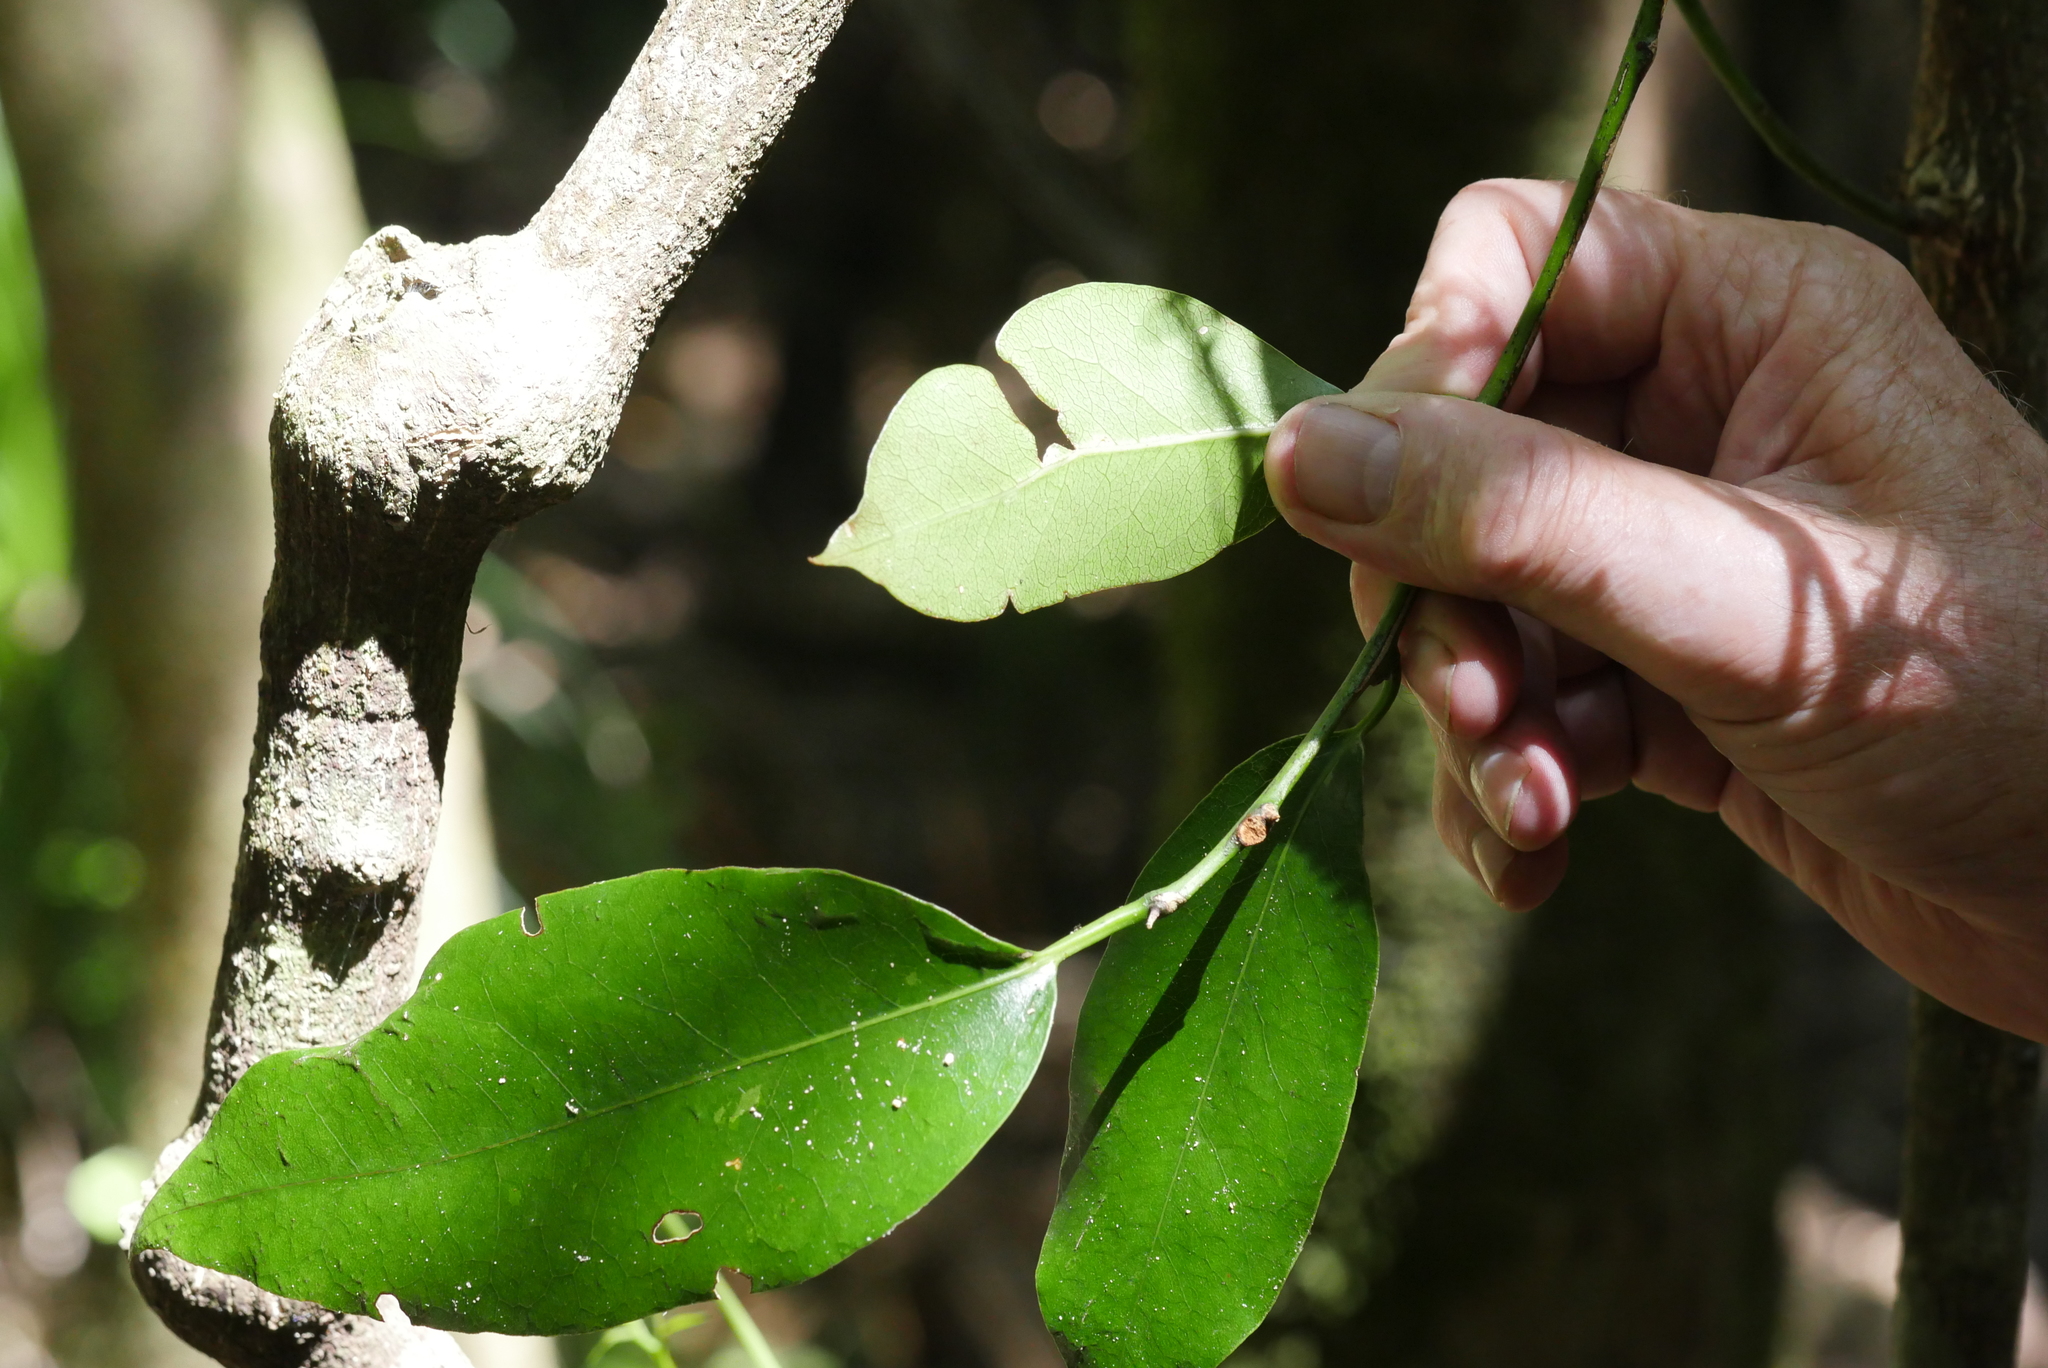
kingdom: Plantae
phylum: Tracheophyta
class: Magnoliopsida
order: Malpighiales
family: Passifloraceae
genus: Passiflora
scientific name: Passiflora tetrandra
